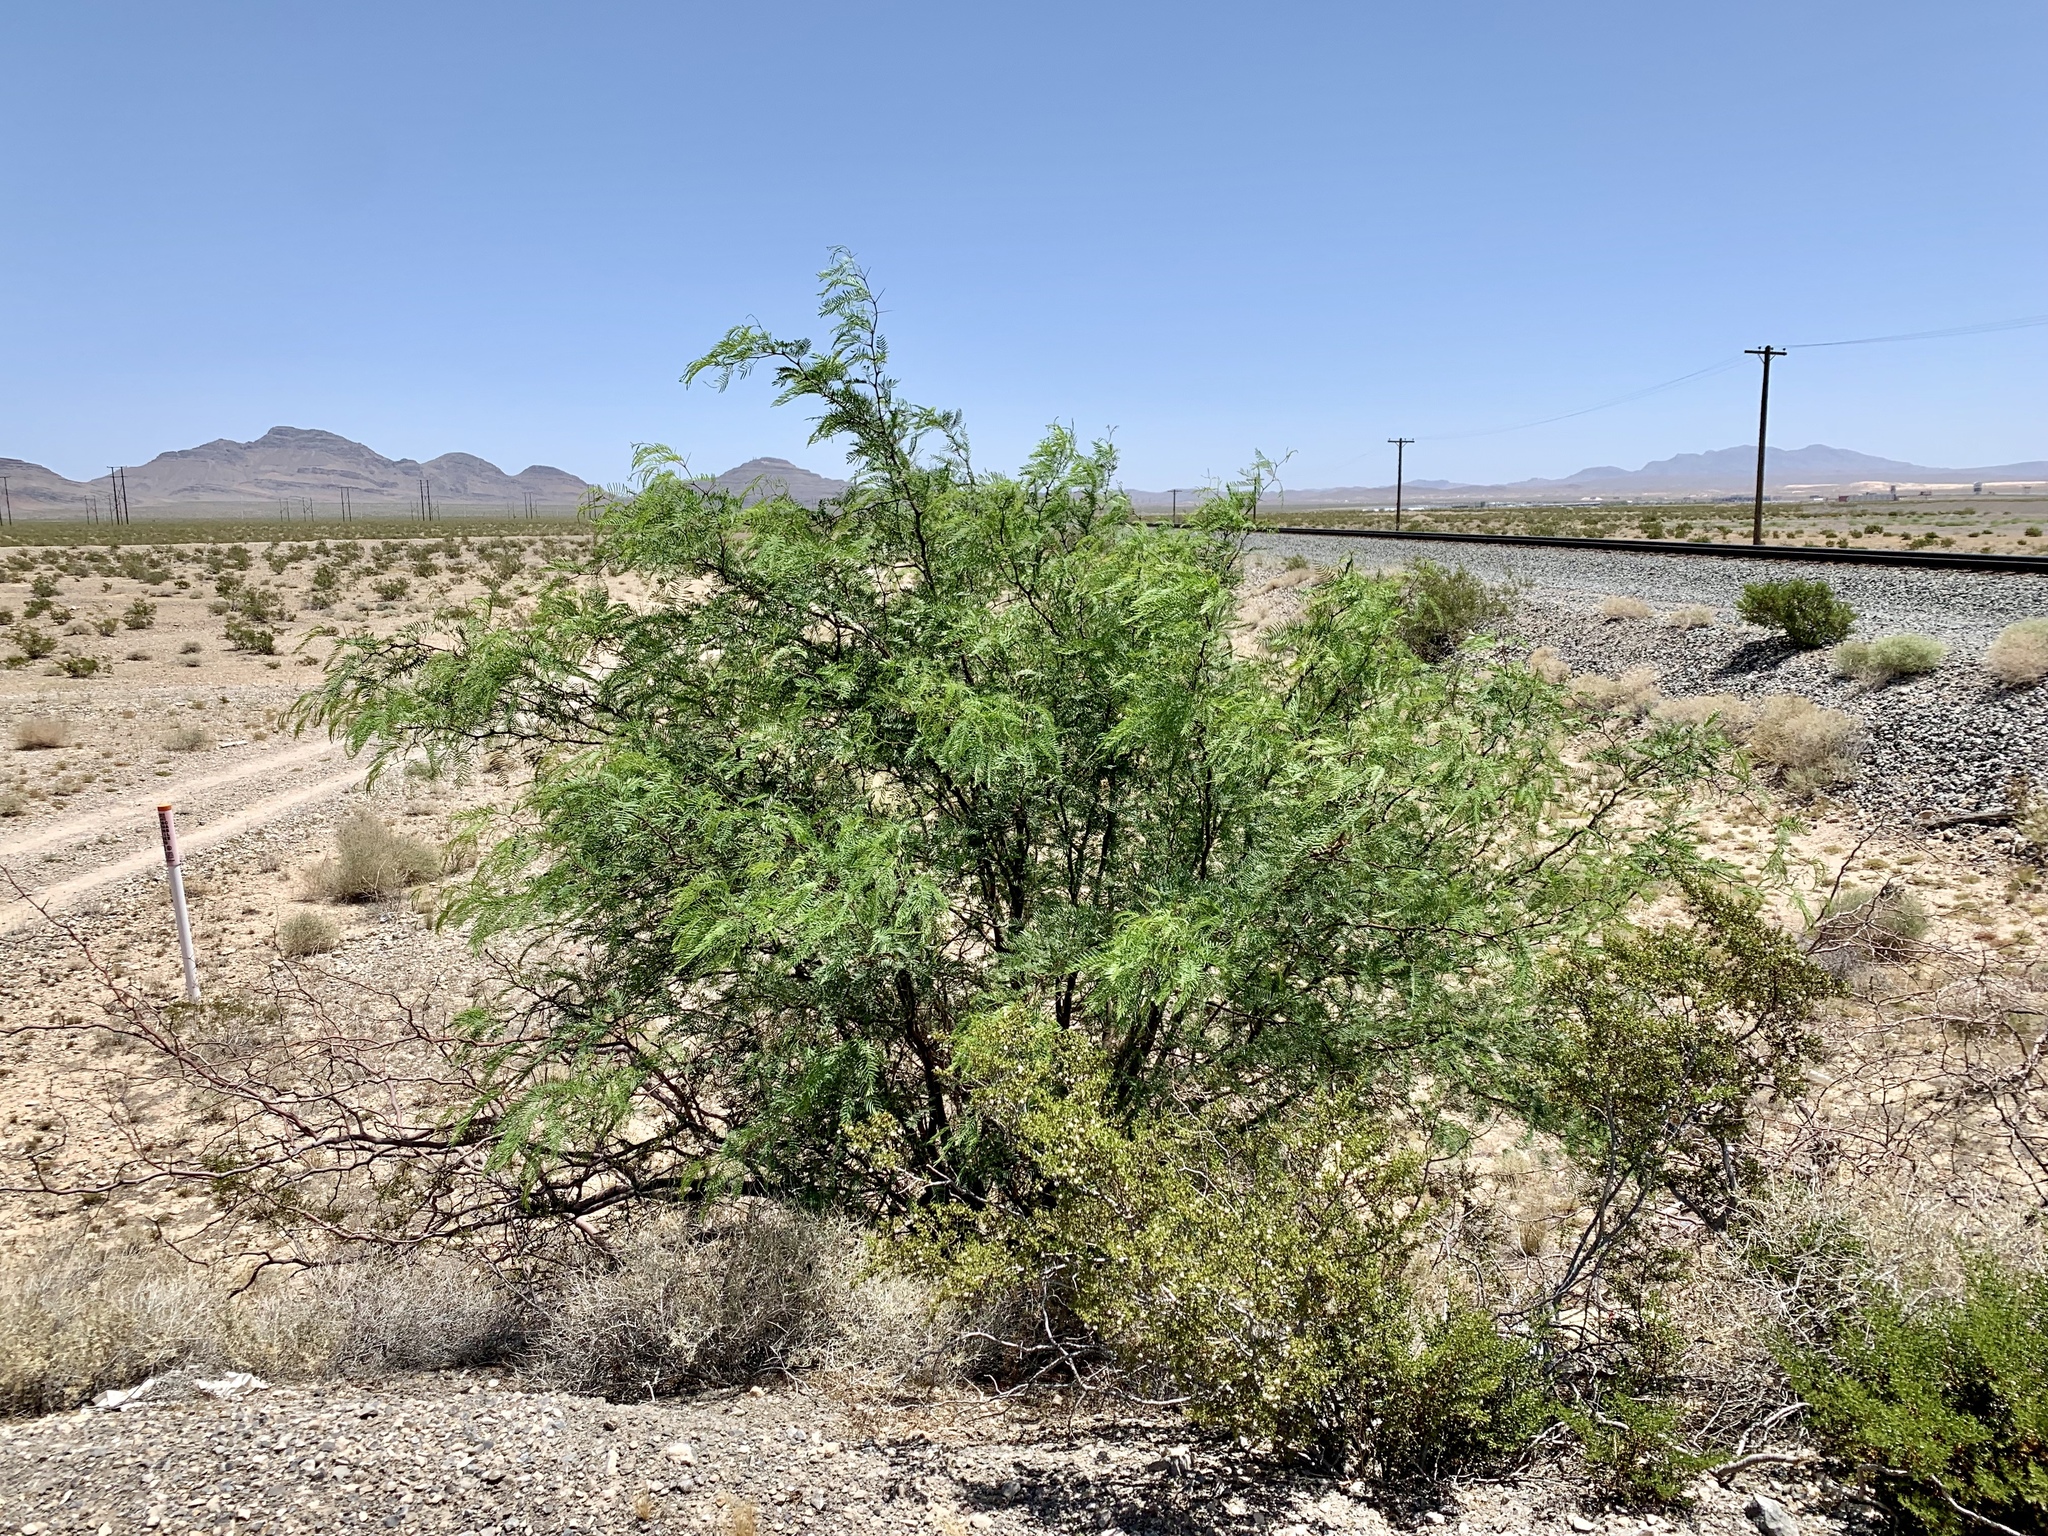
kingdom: Plantae
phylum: Tracheophyta
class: Magnoliopsida
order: Fabales
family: Fabaceae
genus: Prosopis
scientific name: Prosopis pubescens
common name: Screw-bean
